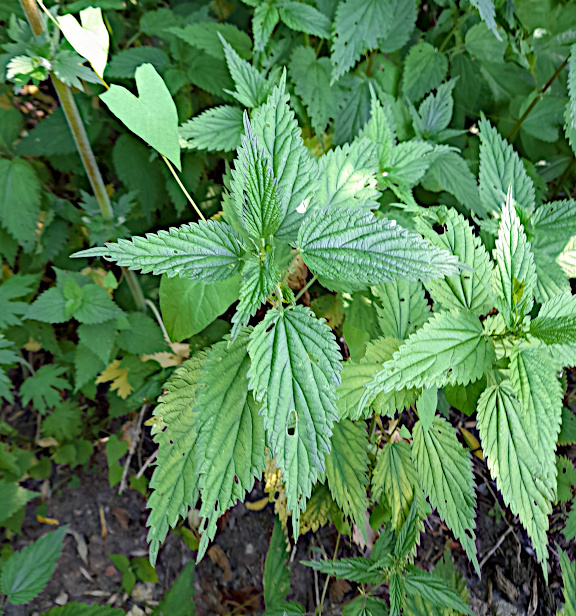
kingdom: Plantae
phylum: Tracheophyta
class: Magnoliopsida
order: Rosales
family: Urticaceae
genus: Urtica
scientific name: Urtica dioica
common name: Common nettle
